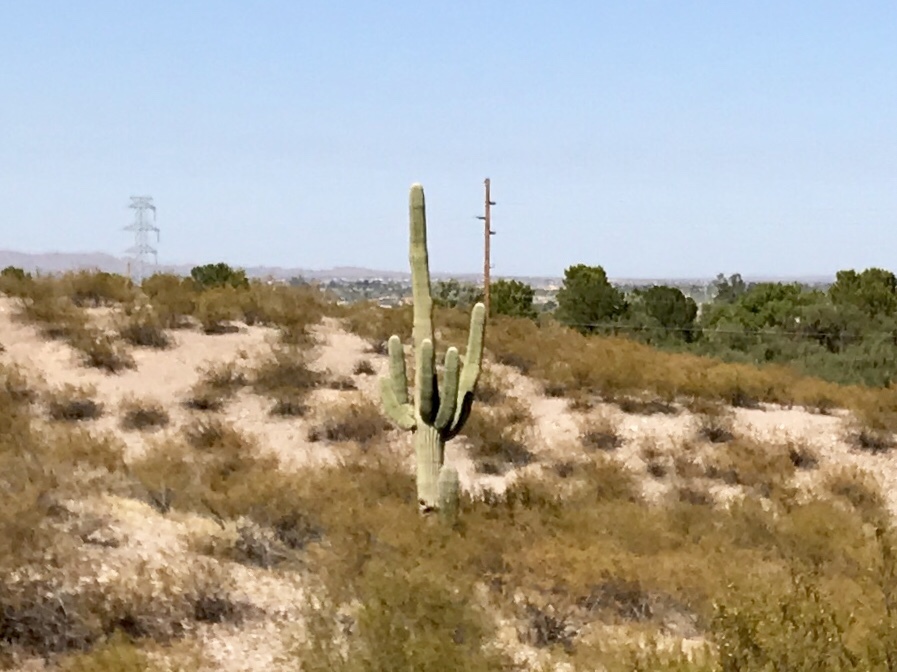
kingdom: Plantae
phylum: Tracheophyta
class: Magnoliopsida
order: Caryophyllales
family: Cactaceae
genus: Carnegiea
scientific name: Carnegiea gigantea
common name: Saguaro
